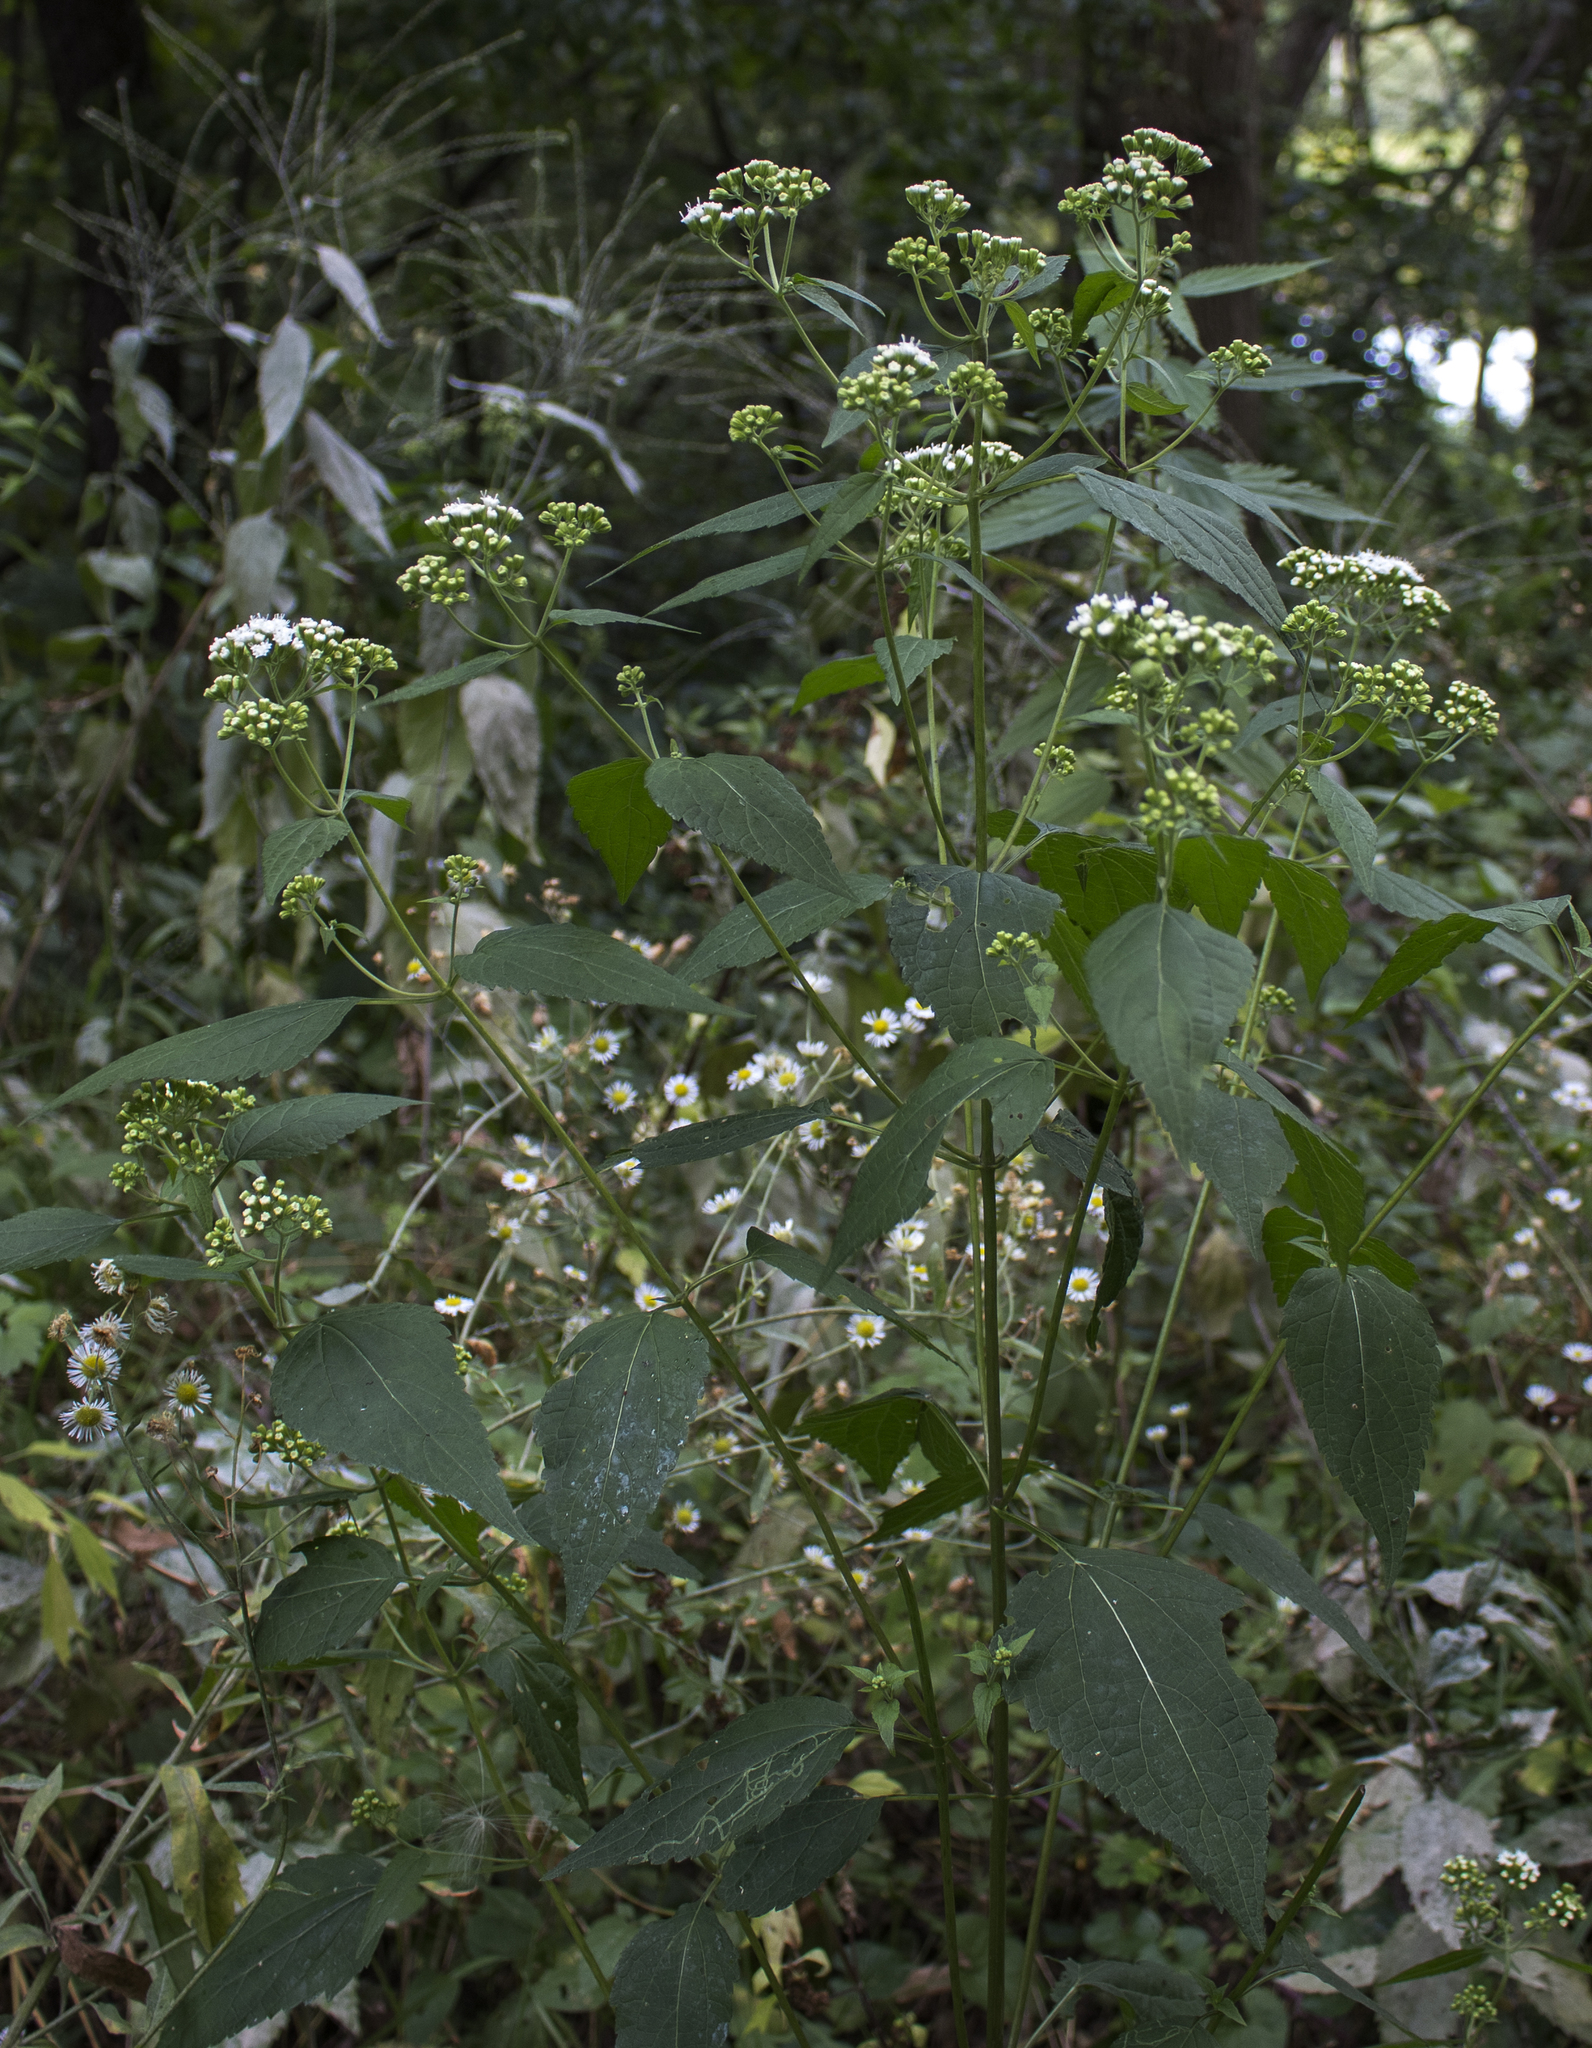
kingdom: Plantae
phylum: Tracheophyta
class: Magnoliopsida
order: Asterales
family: Asteraceae
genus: Ageratina
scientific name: Ageratina altissima
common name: White snakeroot
